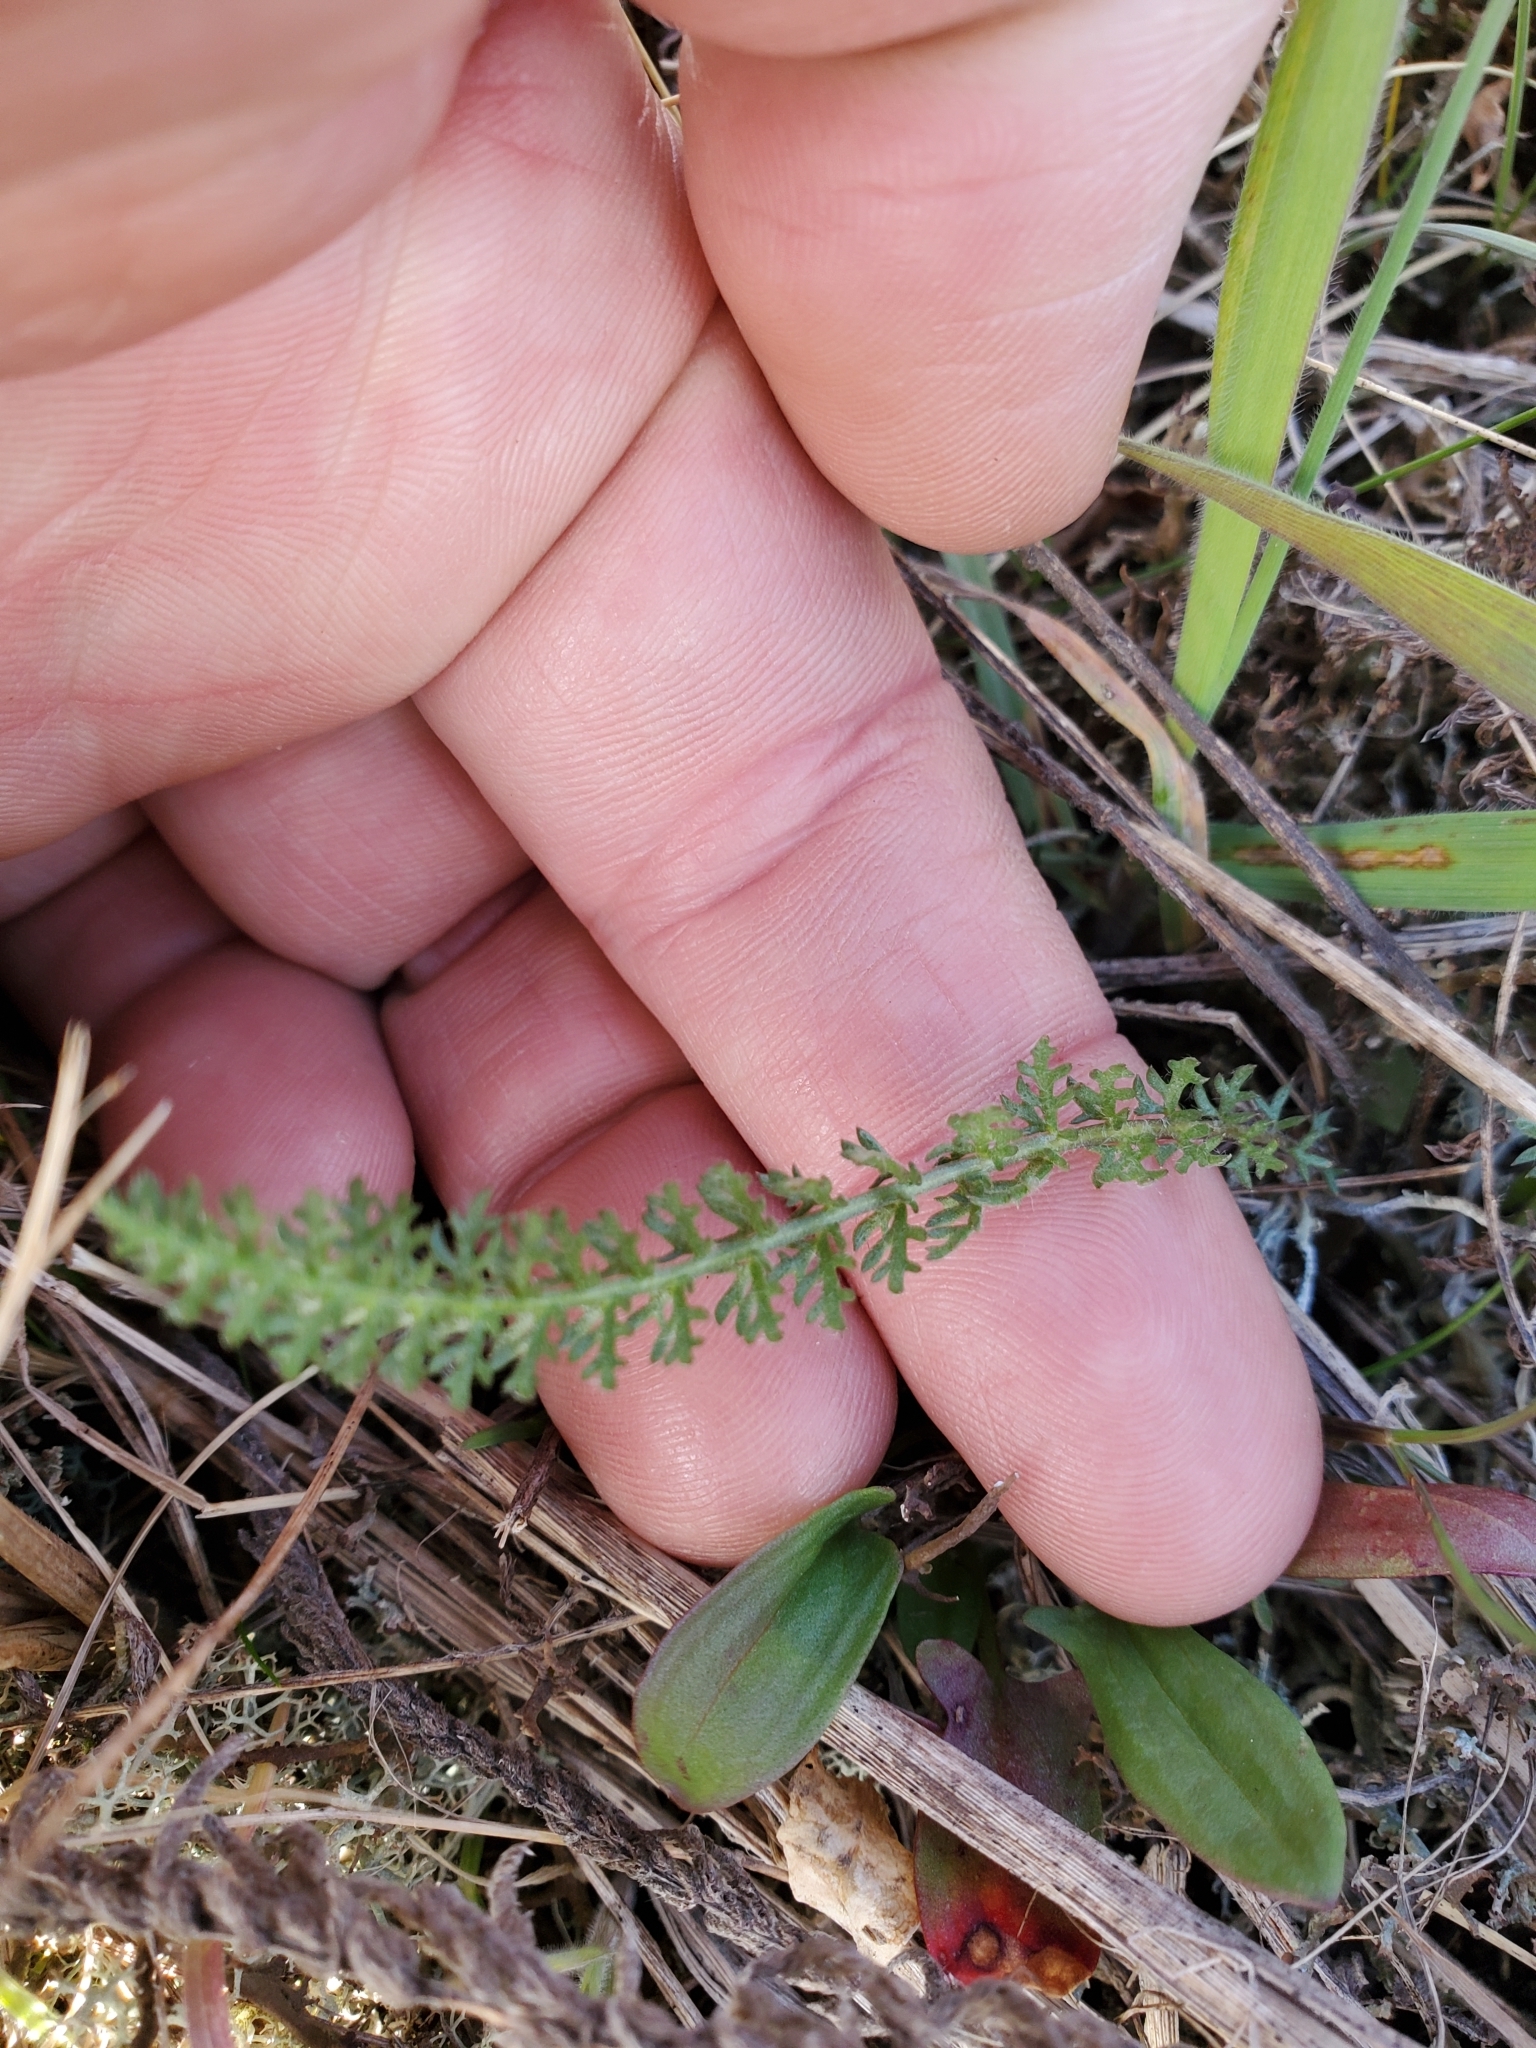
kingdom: Plantae
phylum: Tracheophyta
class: Magnoliopsida
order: Asterales
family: Asteraceae
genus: Achillea
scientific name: Achillea millefolium
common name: Yarrow
